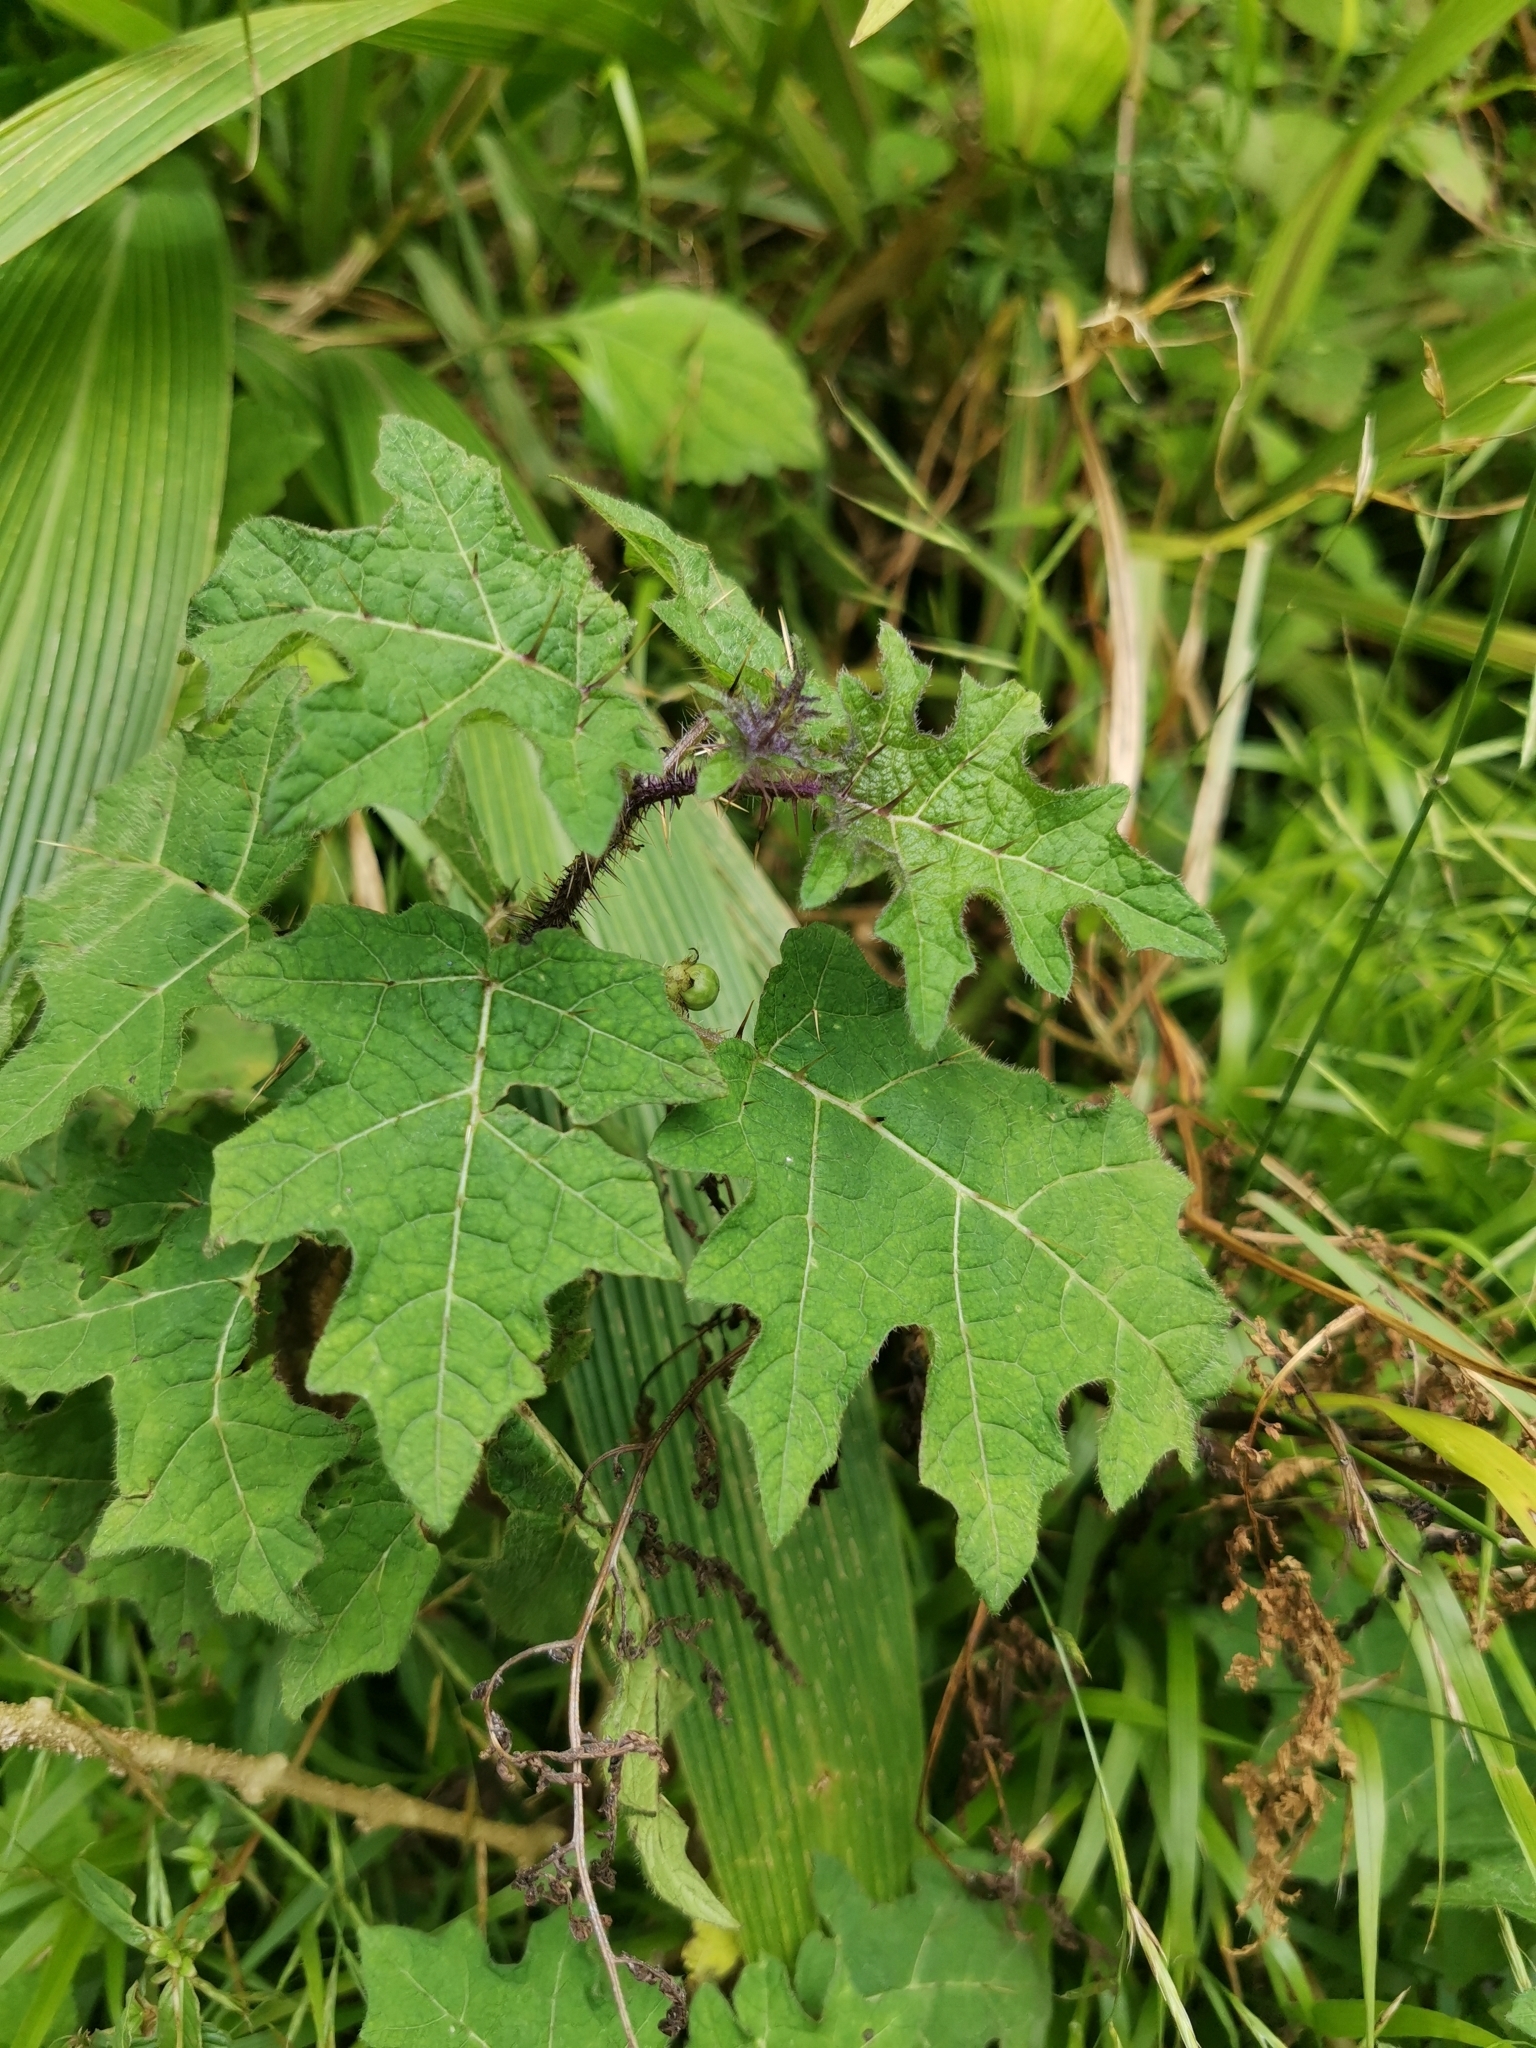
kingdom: Plantae
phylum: Tracheophyta
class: Magnoliopsida
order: Solanales
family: Solanaceae
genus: Solanum
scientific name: Solanum aculeatissimum
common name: Dutch eggplant
